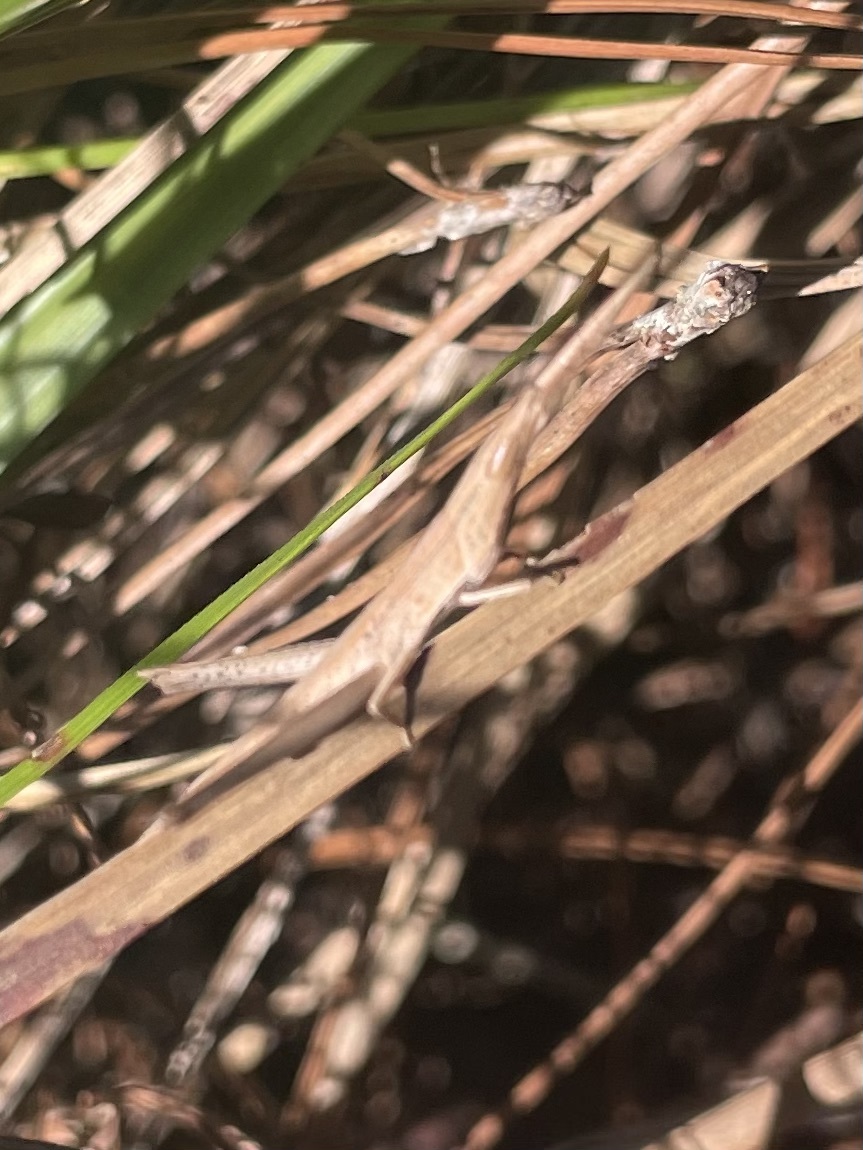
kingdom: Animalia
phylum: Arthropoda
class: Insecta
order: Orthoptera
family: Acrididae
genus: Achurum
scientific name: Achurum carinatum
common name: Long-headed toothpick grasshopper
